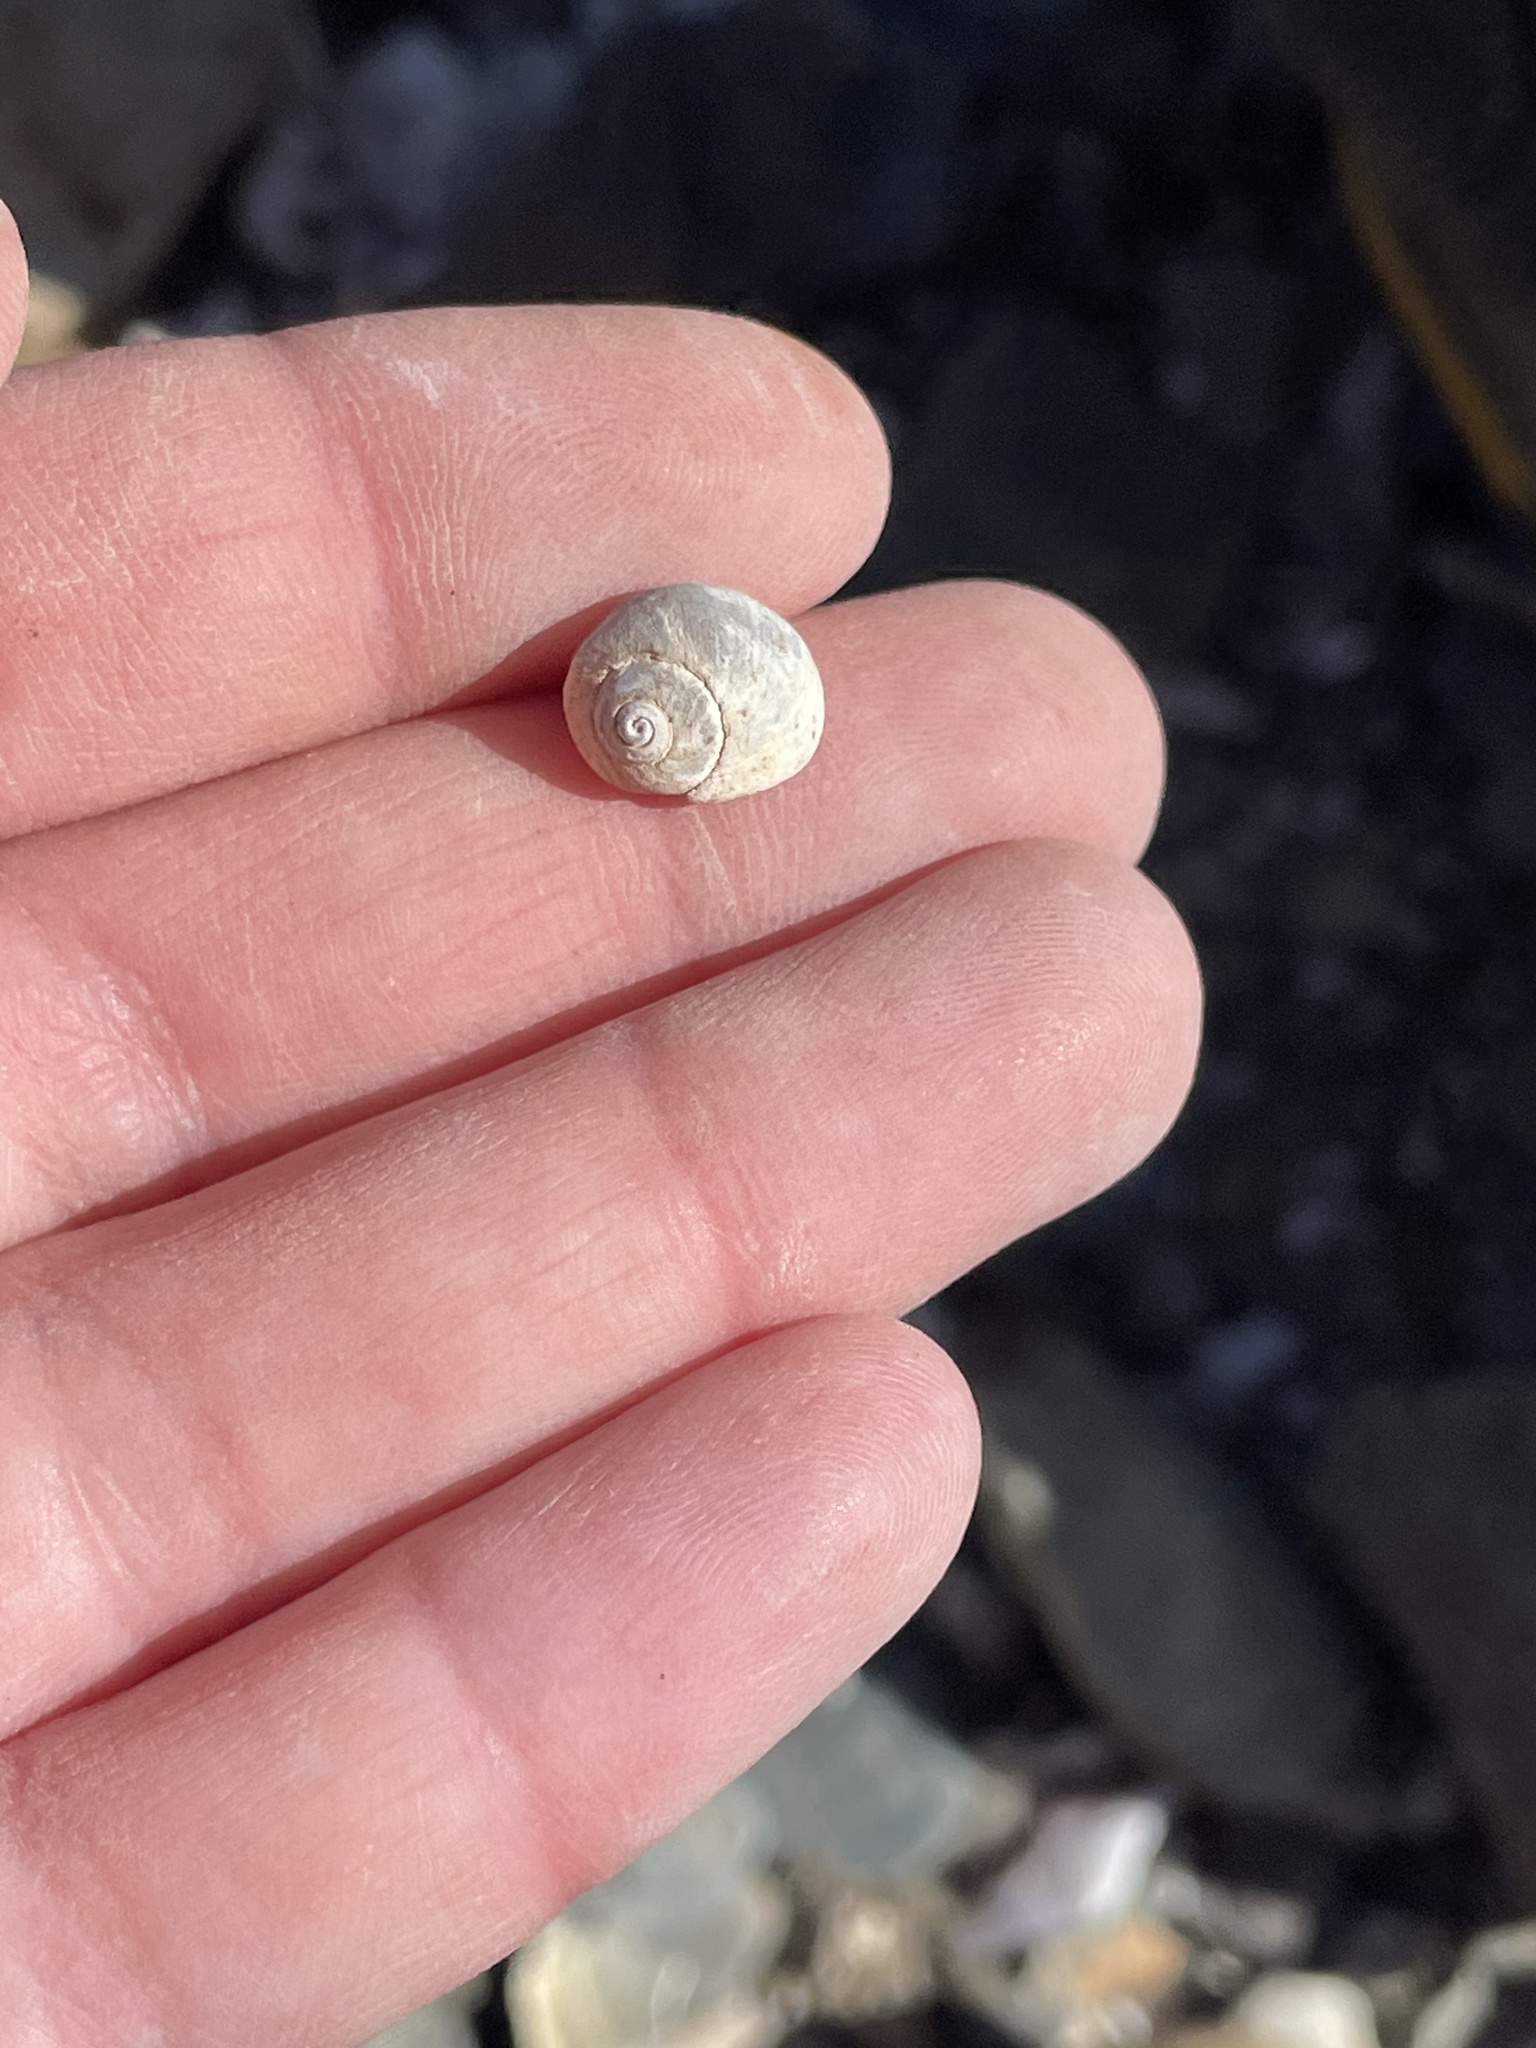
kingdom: Animalia
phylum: Mollusca
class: Gastropoda
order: Littorinimorpha
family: Littorinidae
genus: Littorina
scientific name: Littorina obtusata
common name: Flat periwinkle
